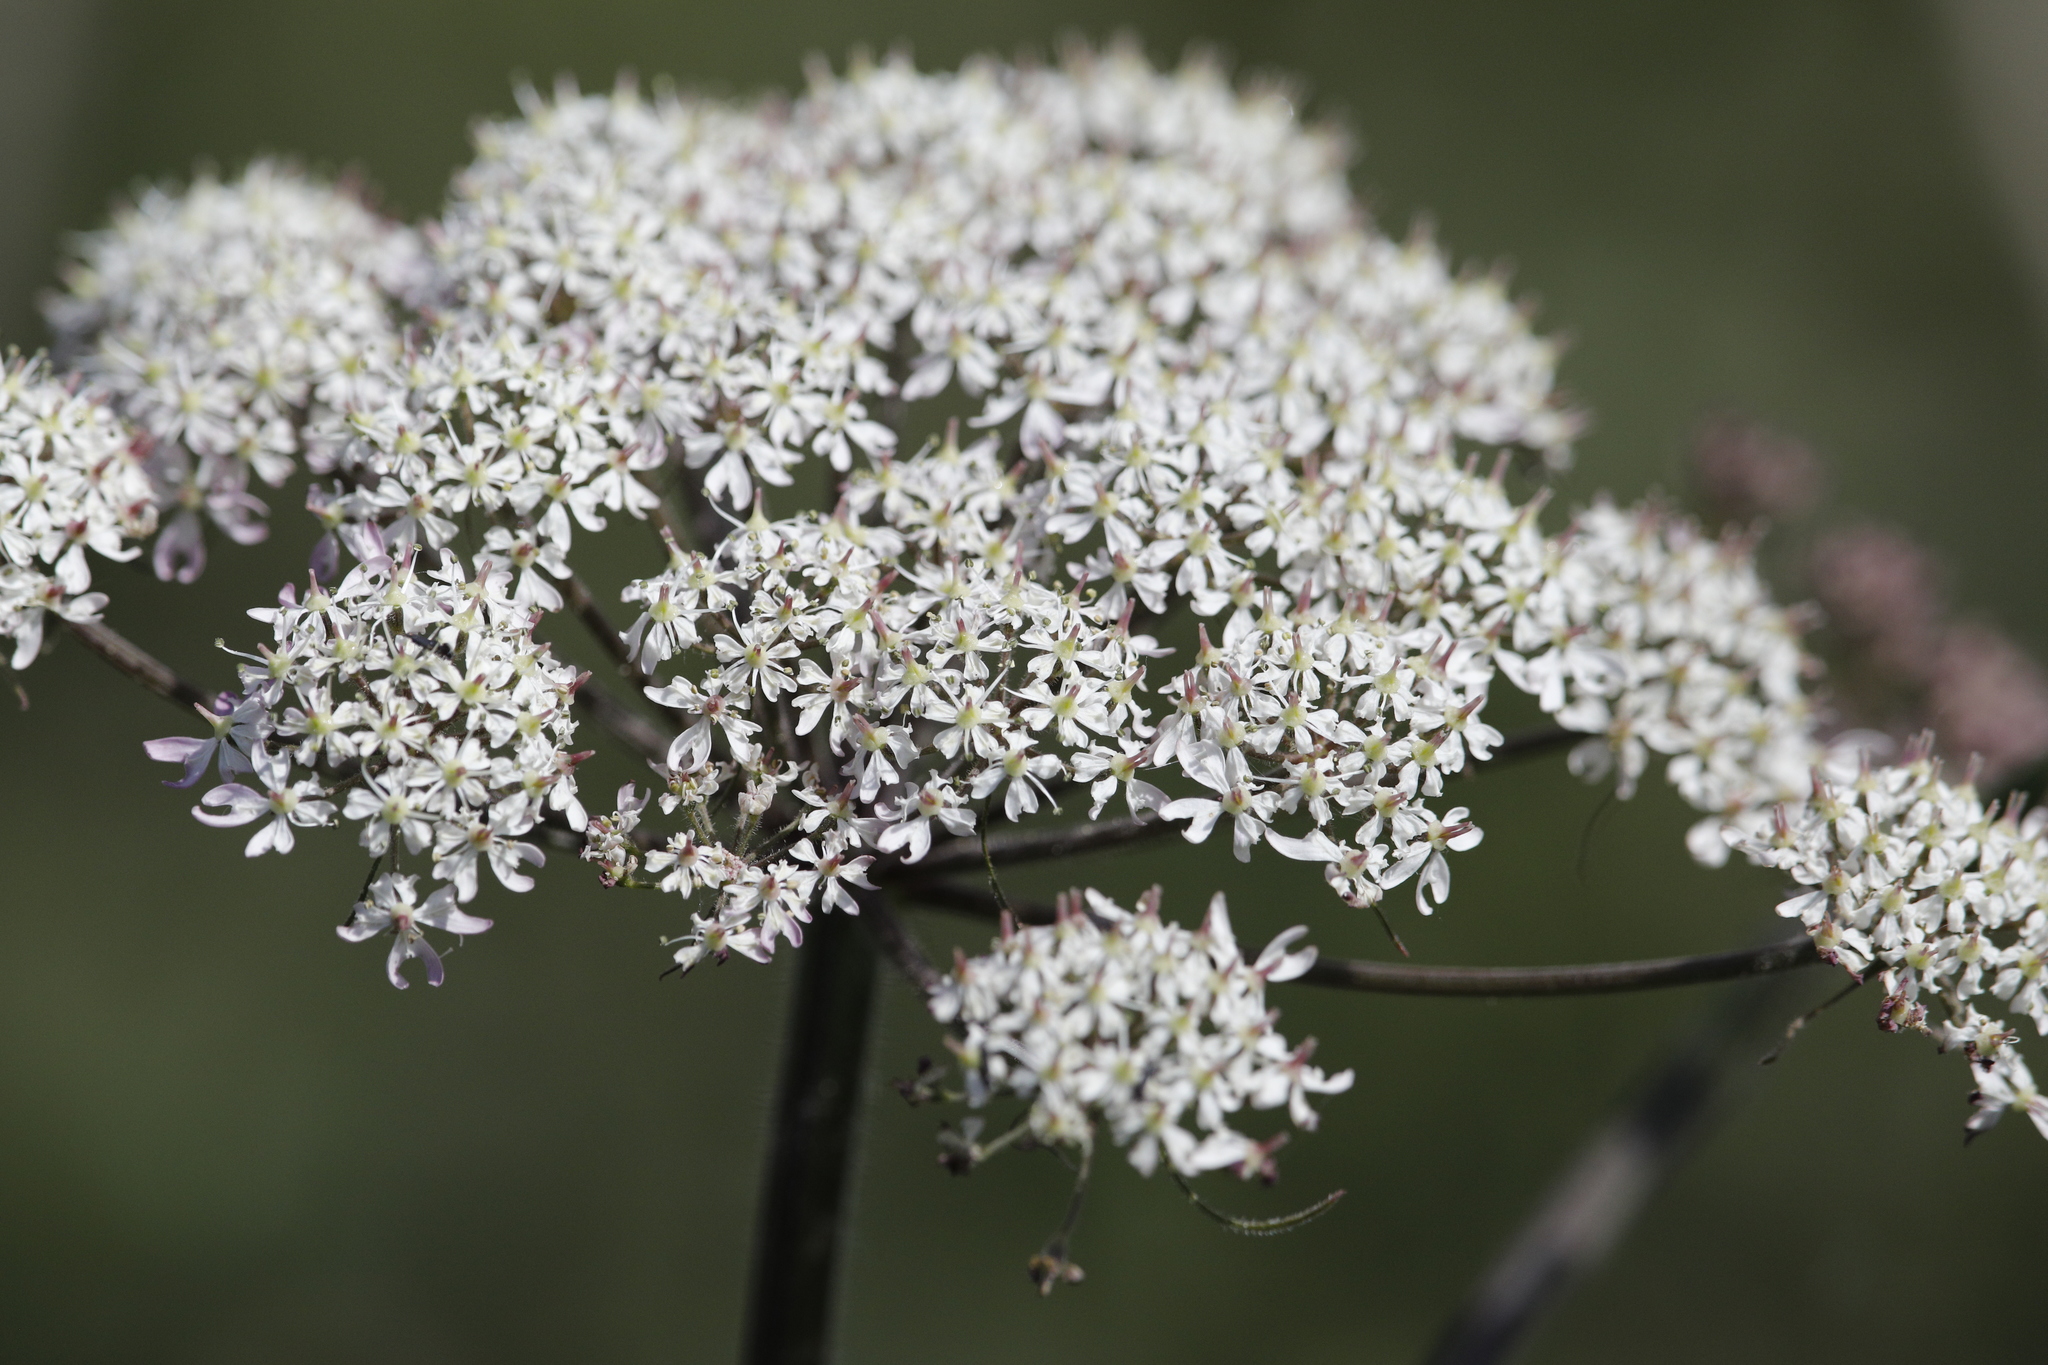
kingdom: Plantae
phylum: Tracheophyta
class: Magnoliopsida
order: Apiales
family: Apiaceae
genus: Heracleum
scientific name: Heracleum sphondylium
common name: Hogweed
